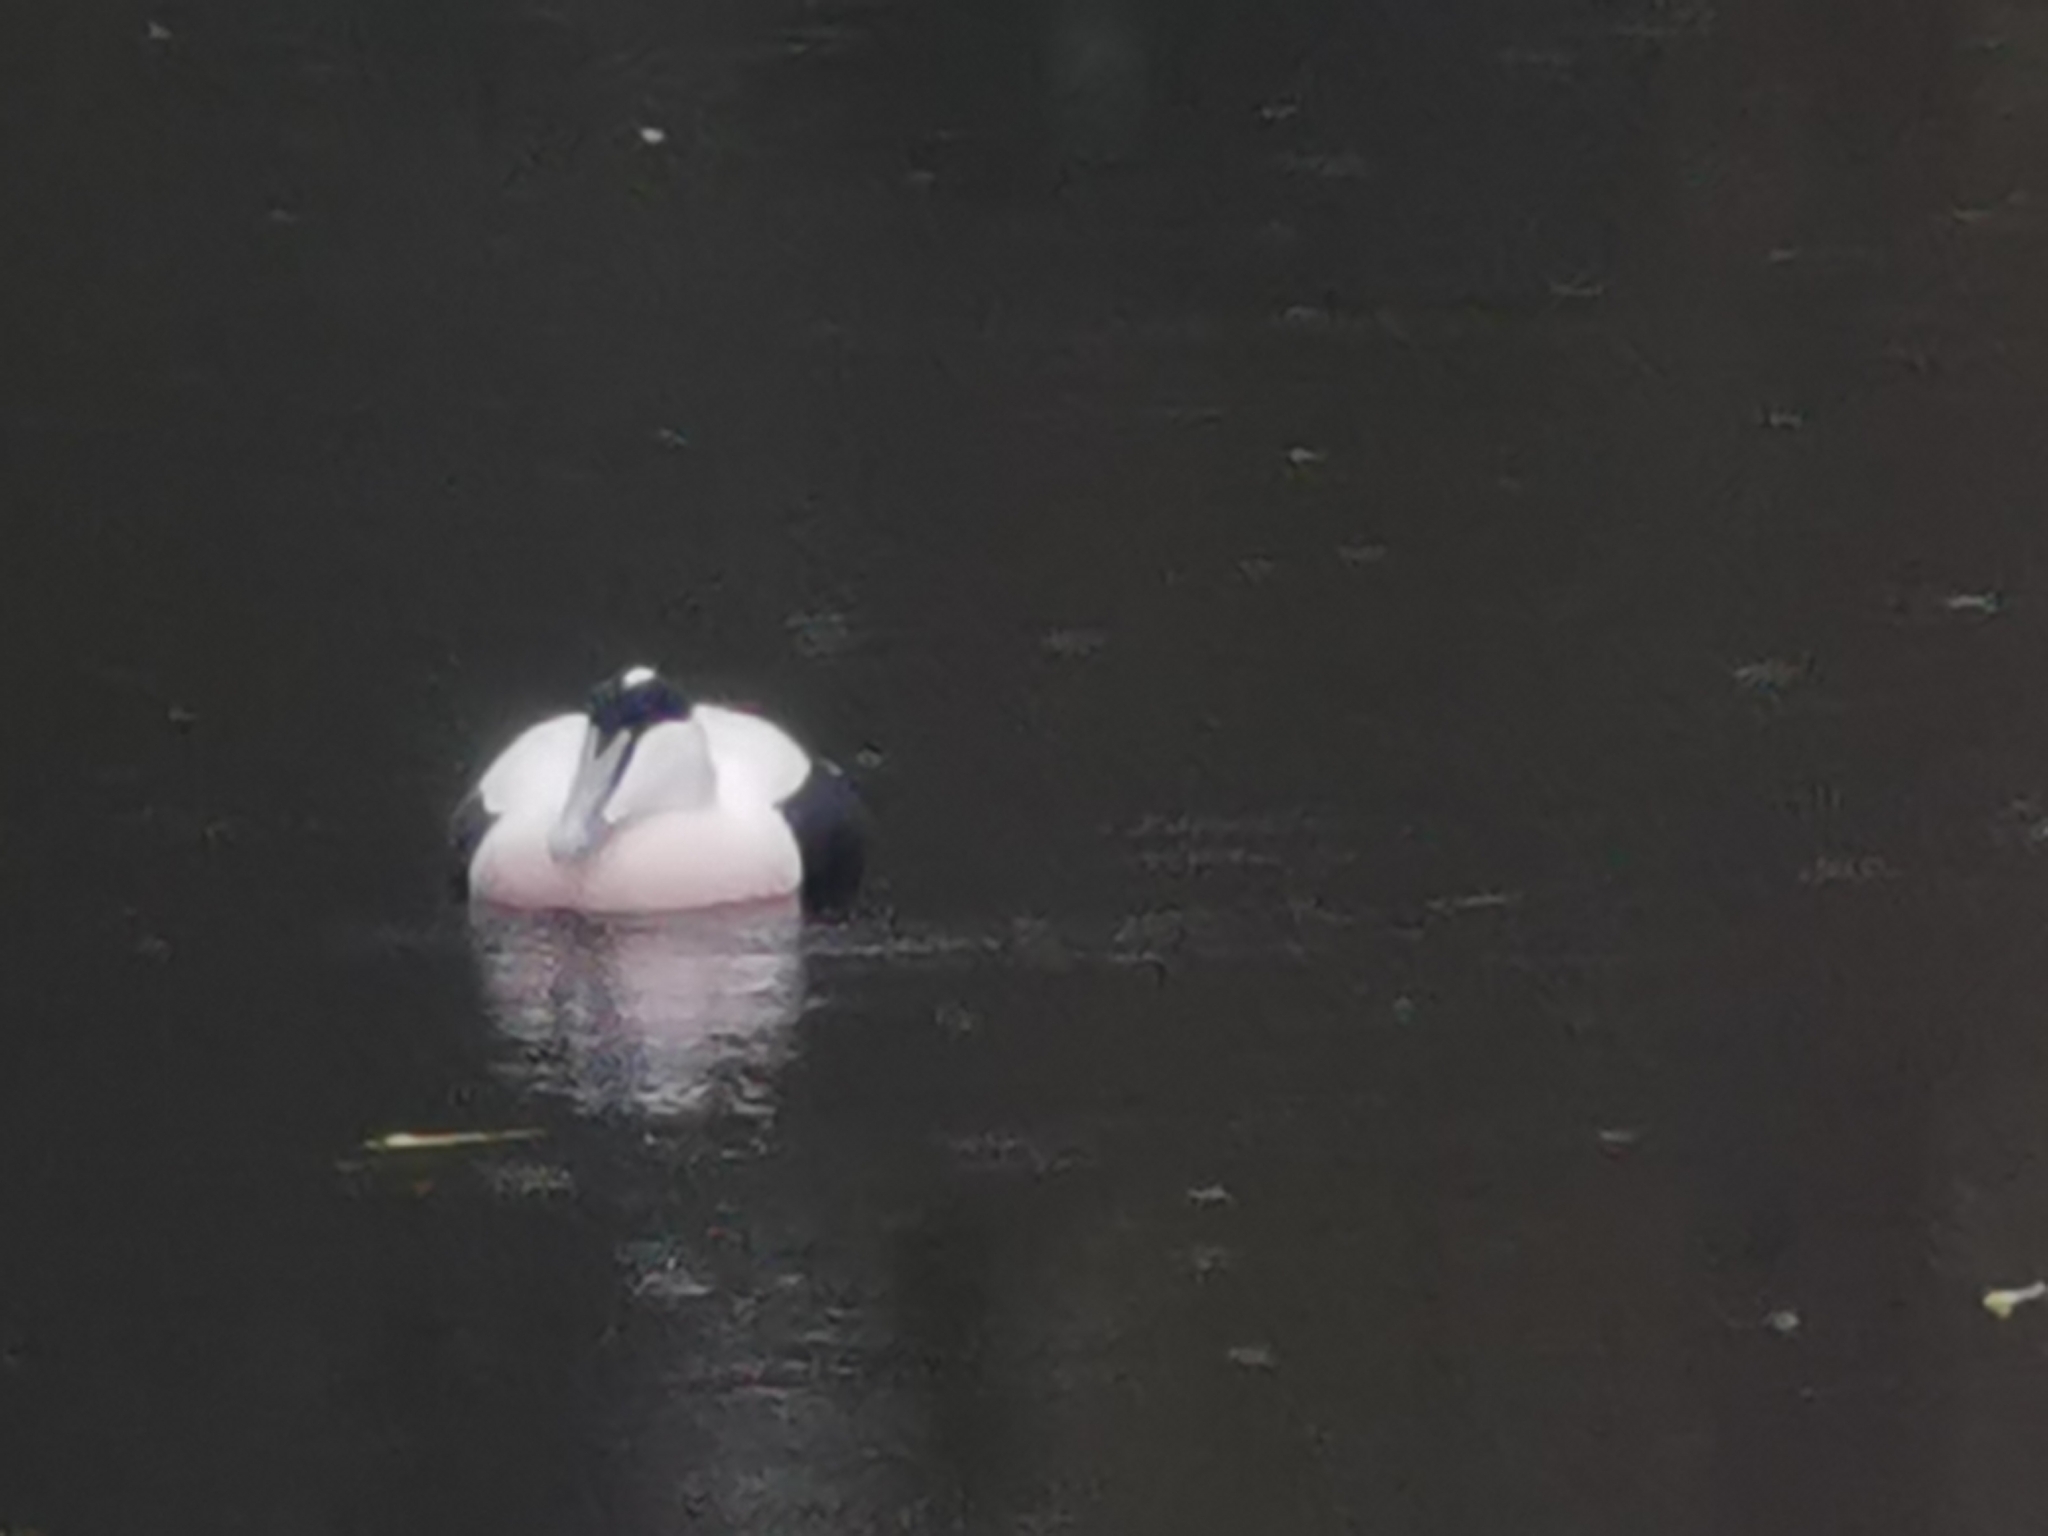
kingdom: Animalia
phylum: Chordata
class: Aves
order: Anseriformes
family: Anatidae
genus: Somateria
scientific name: Somateria mollissima
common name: Common eider
